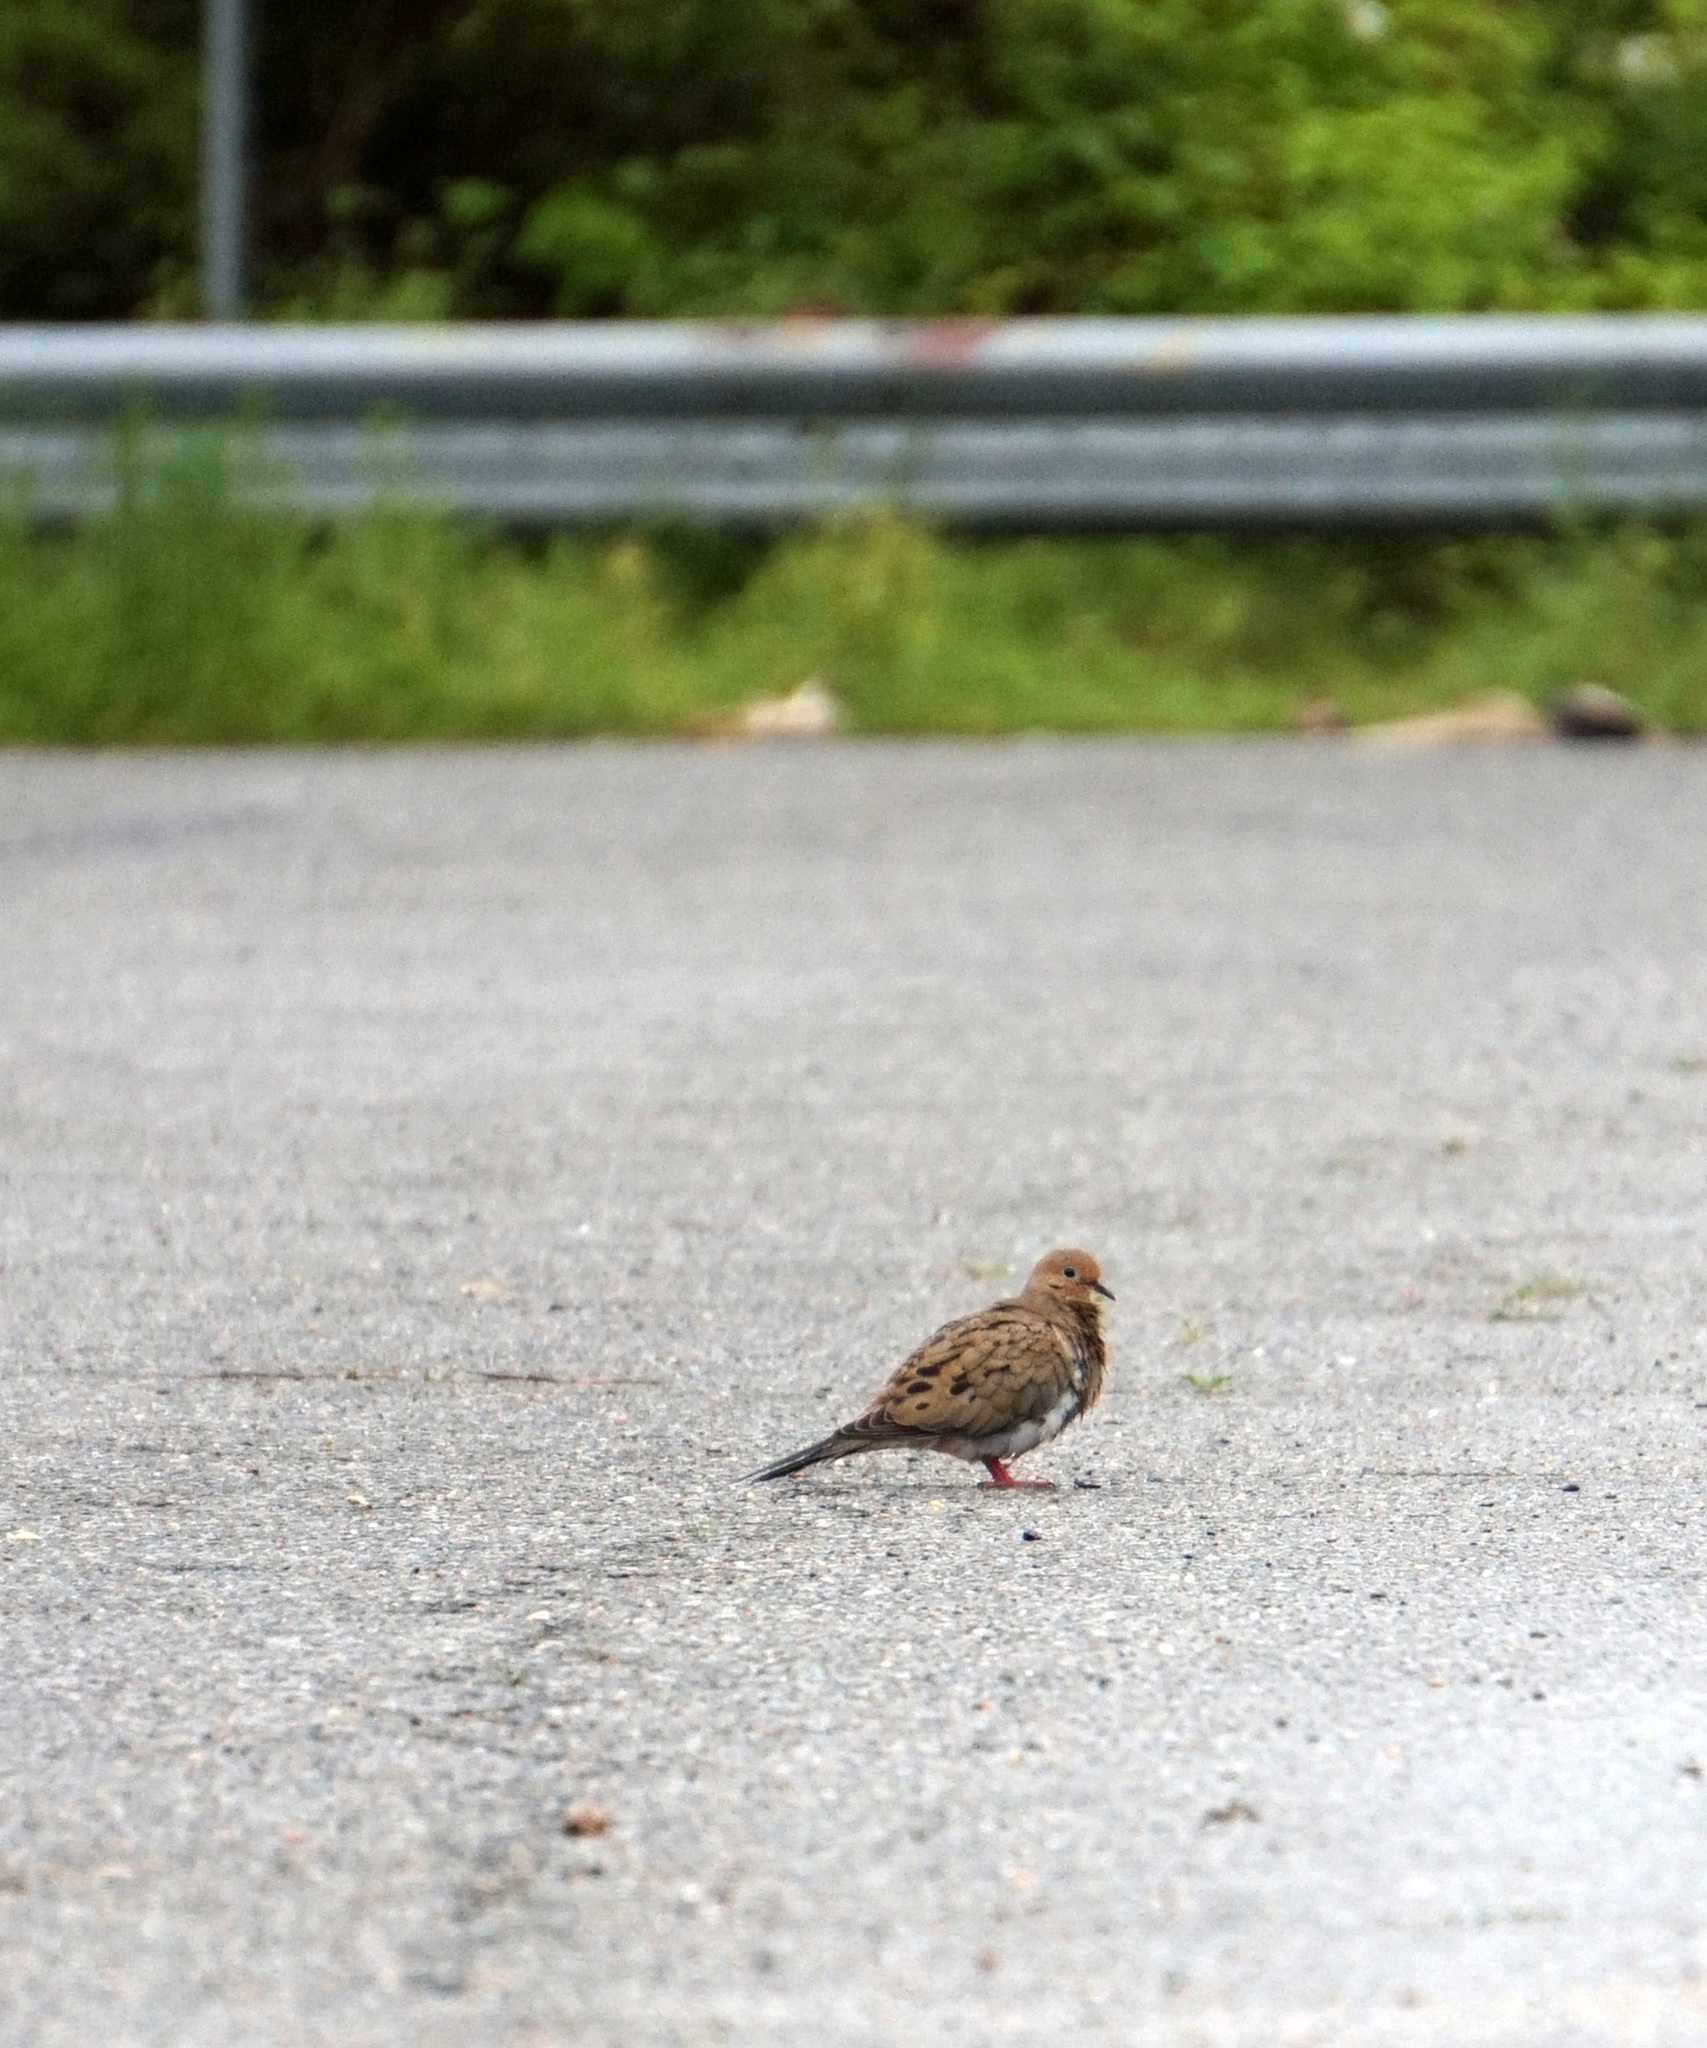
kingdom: Animalia
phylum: Chordata
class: Aves
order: Columbiformes
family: Columbidae
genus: Zenaida
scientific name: Zenaida macroura
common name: Mourning dove
